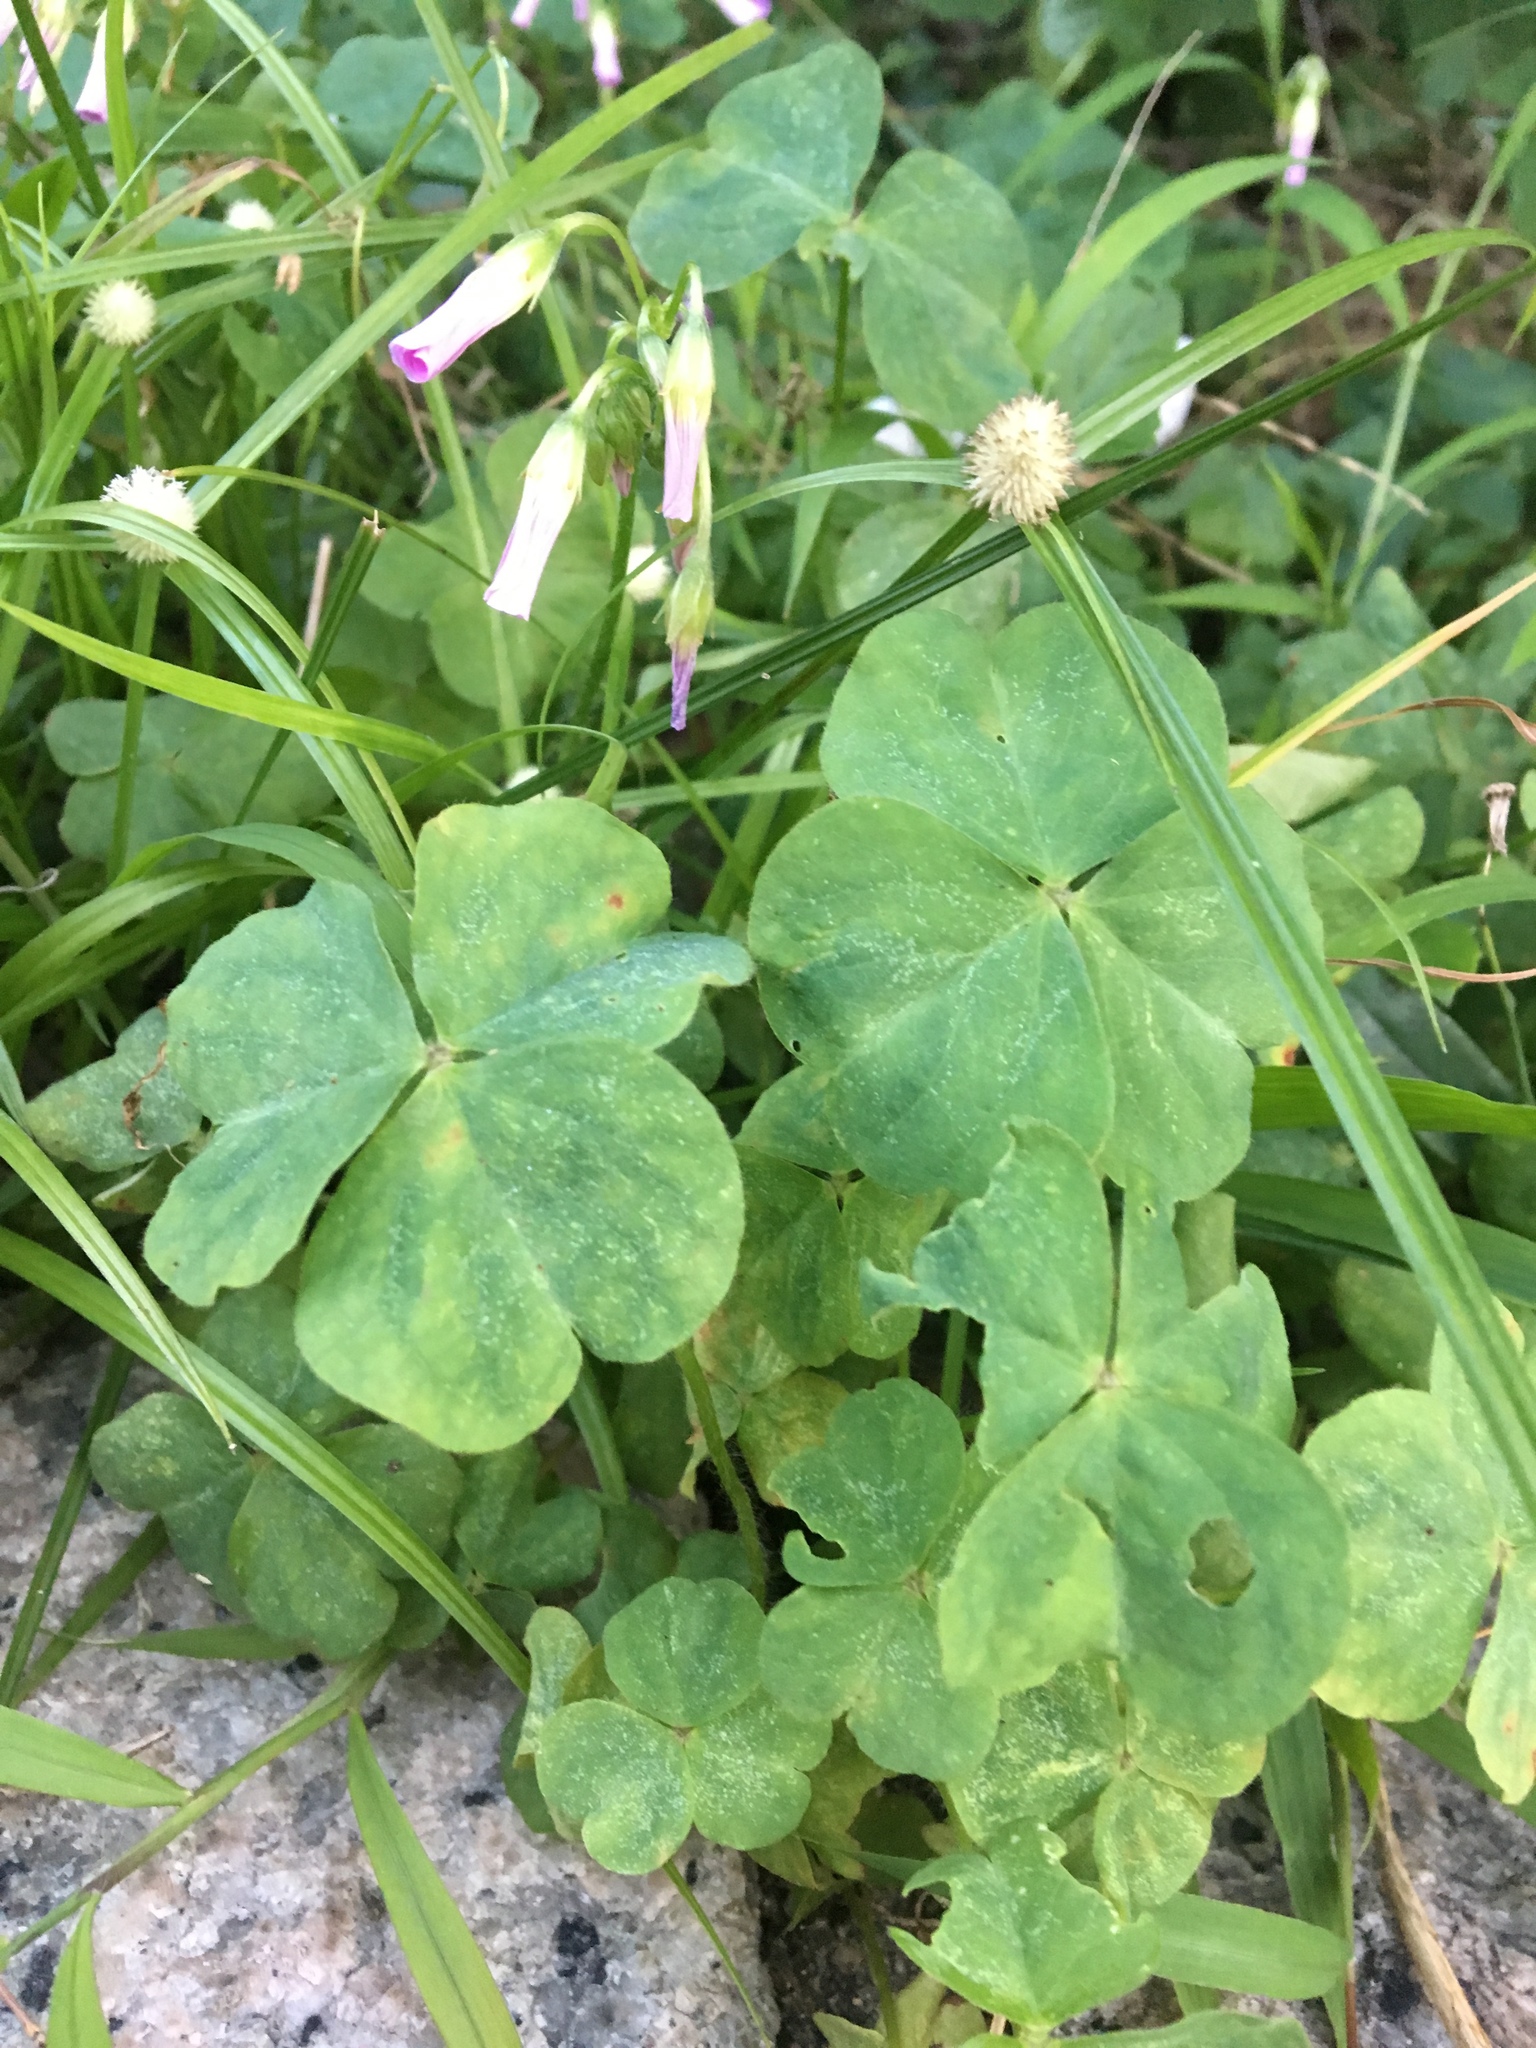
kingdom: Plantae
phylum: Tracheophyta
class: Magnoliopsida
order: Oxalidales
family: Oxalidaceae
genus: Oxalis
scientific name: Oxalis debilis
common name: Large-flowered pink-sorrel
